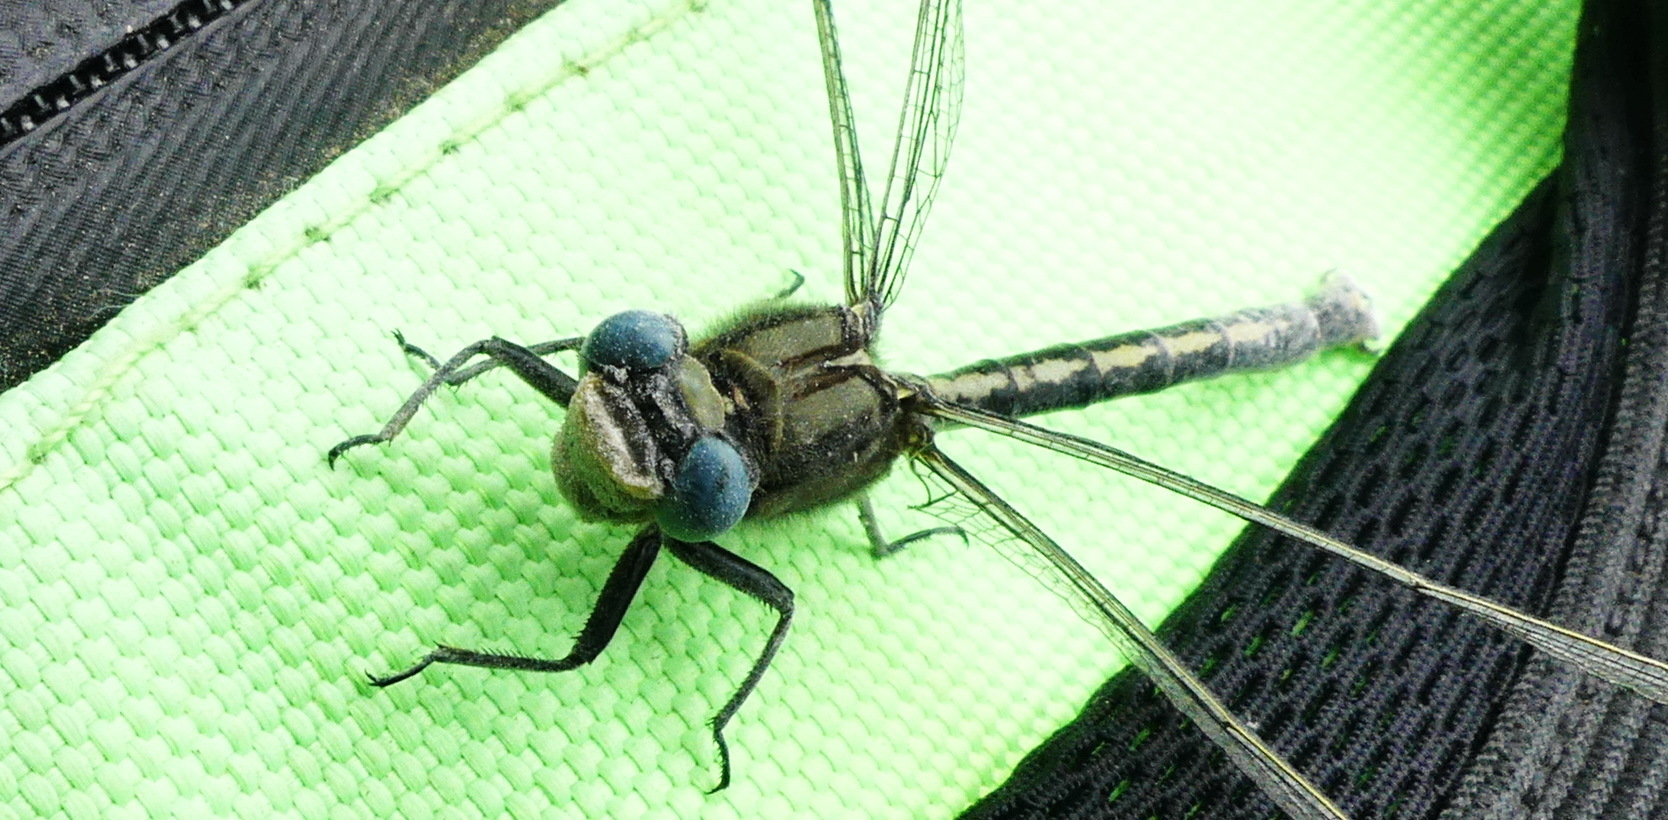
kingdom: Animalia
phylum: Arthropoda
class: Insecta
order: Odonata
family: Gomphidae
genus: Arigomphus
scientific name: Arigomphus cornutus
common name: Horned clubtail
